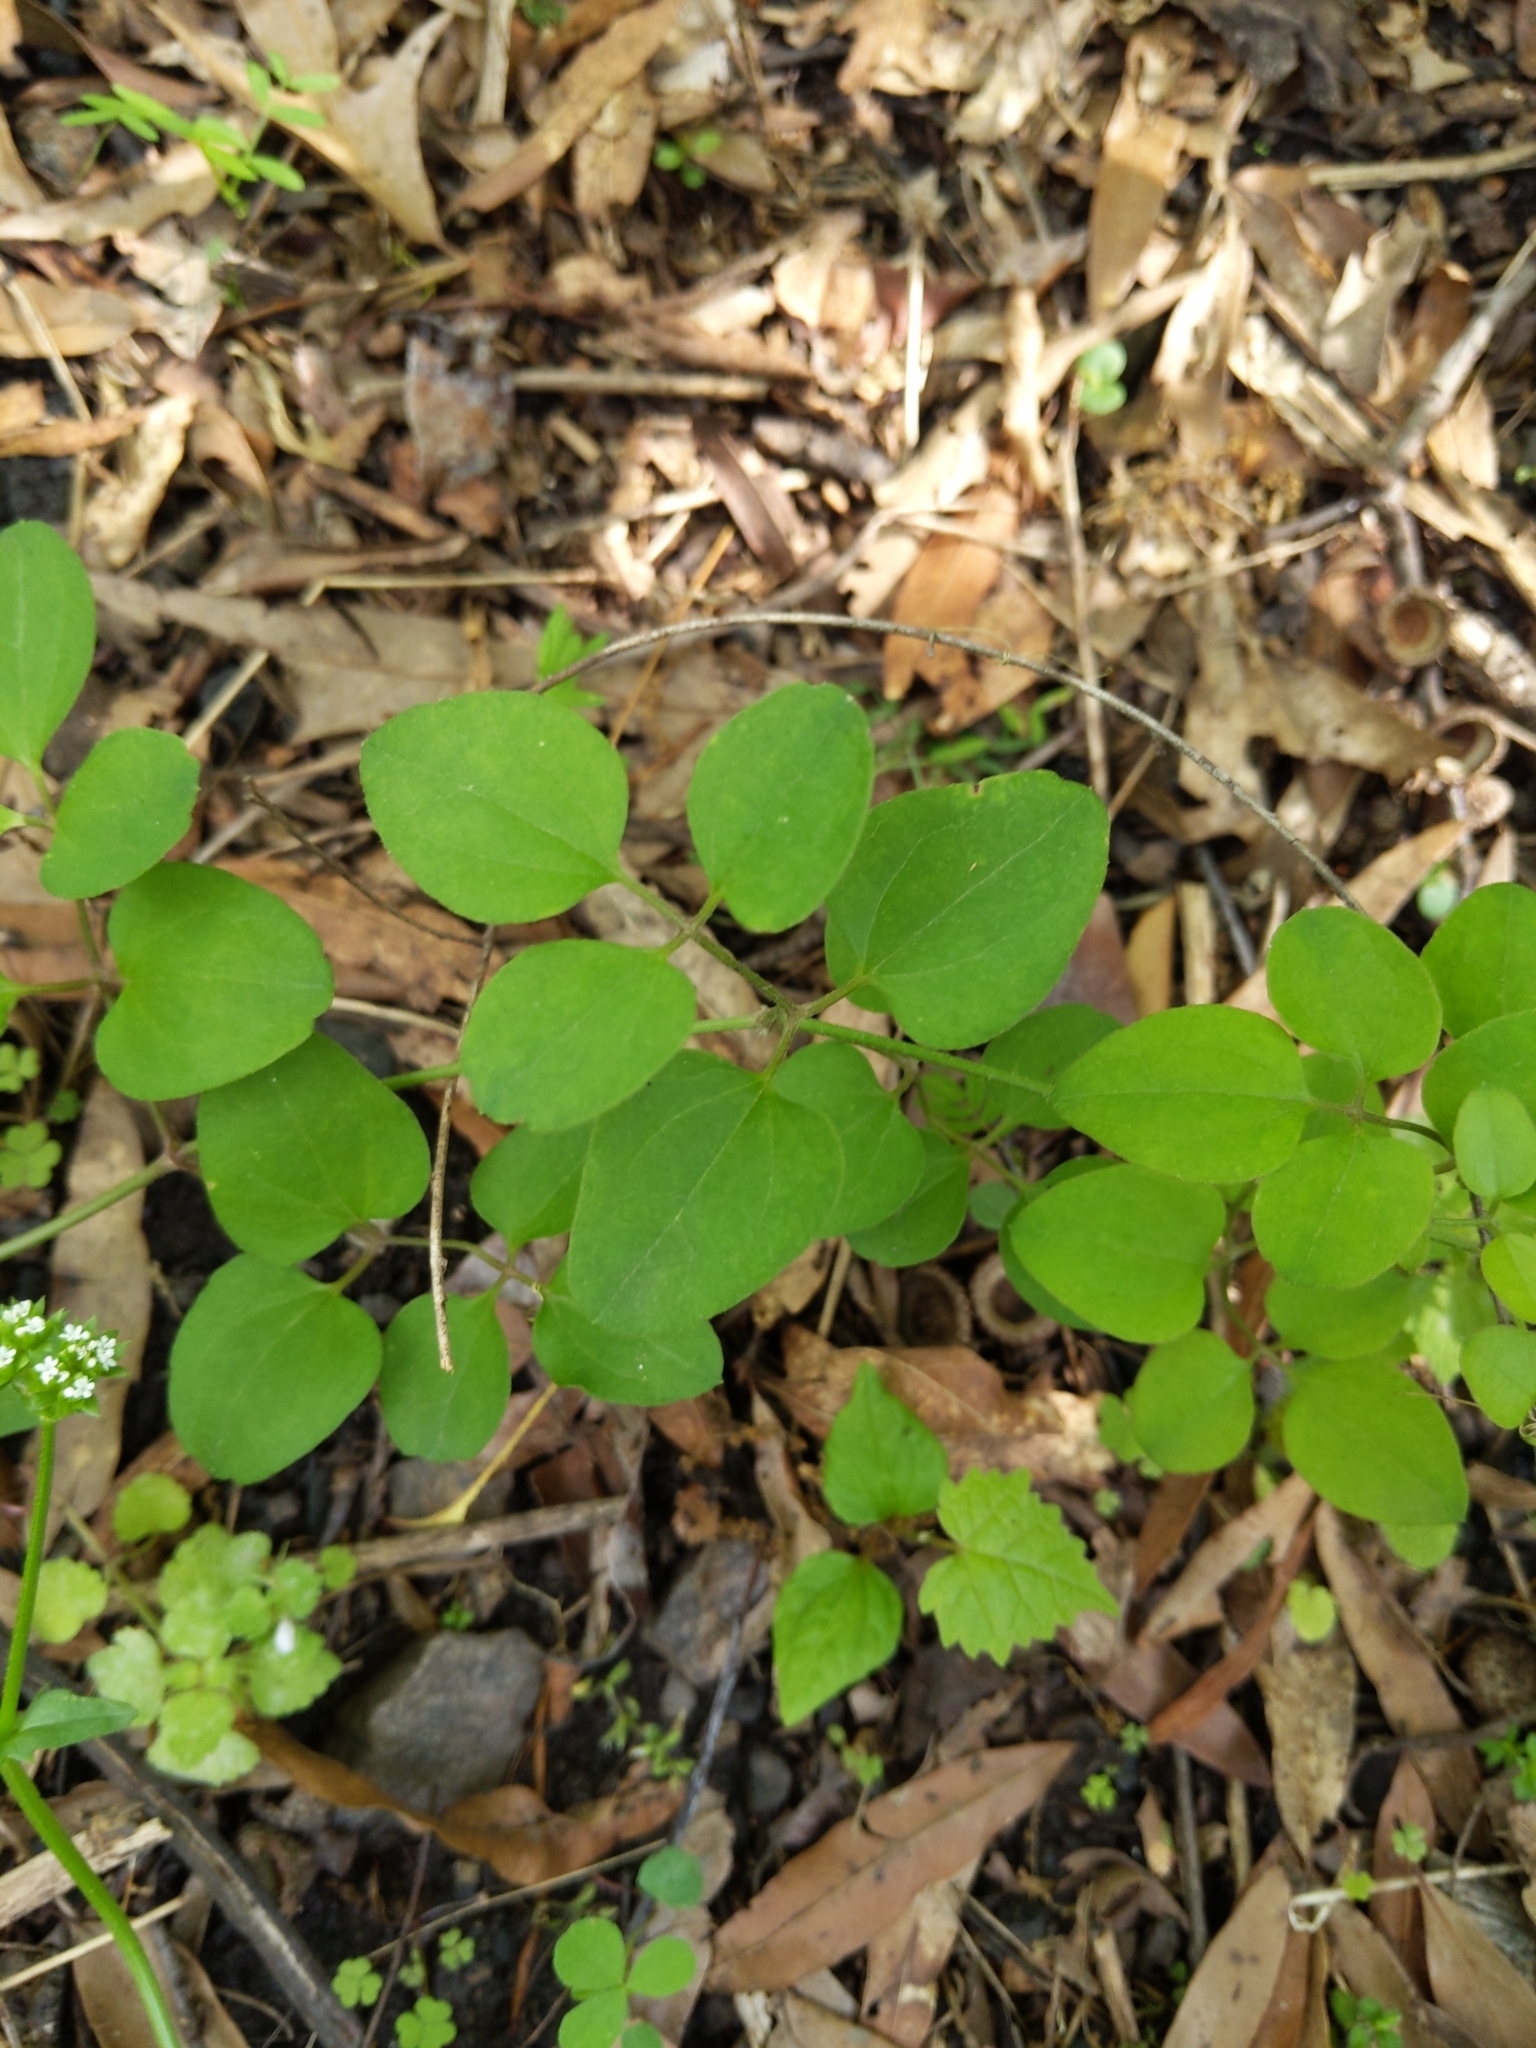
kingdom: Plantae
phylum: Tracheophyta
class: Magnoliopsida
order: Asterales
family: Asteraceae
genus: Coreopsis
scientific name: Coreopsis auriculata
